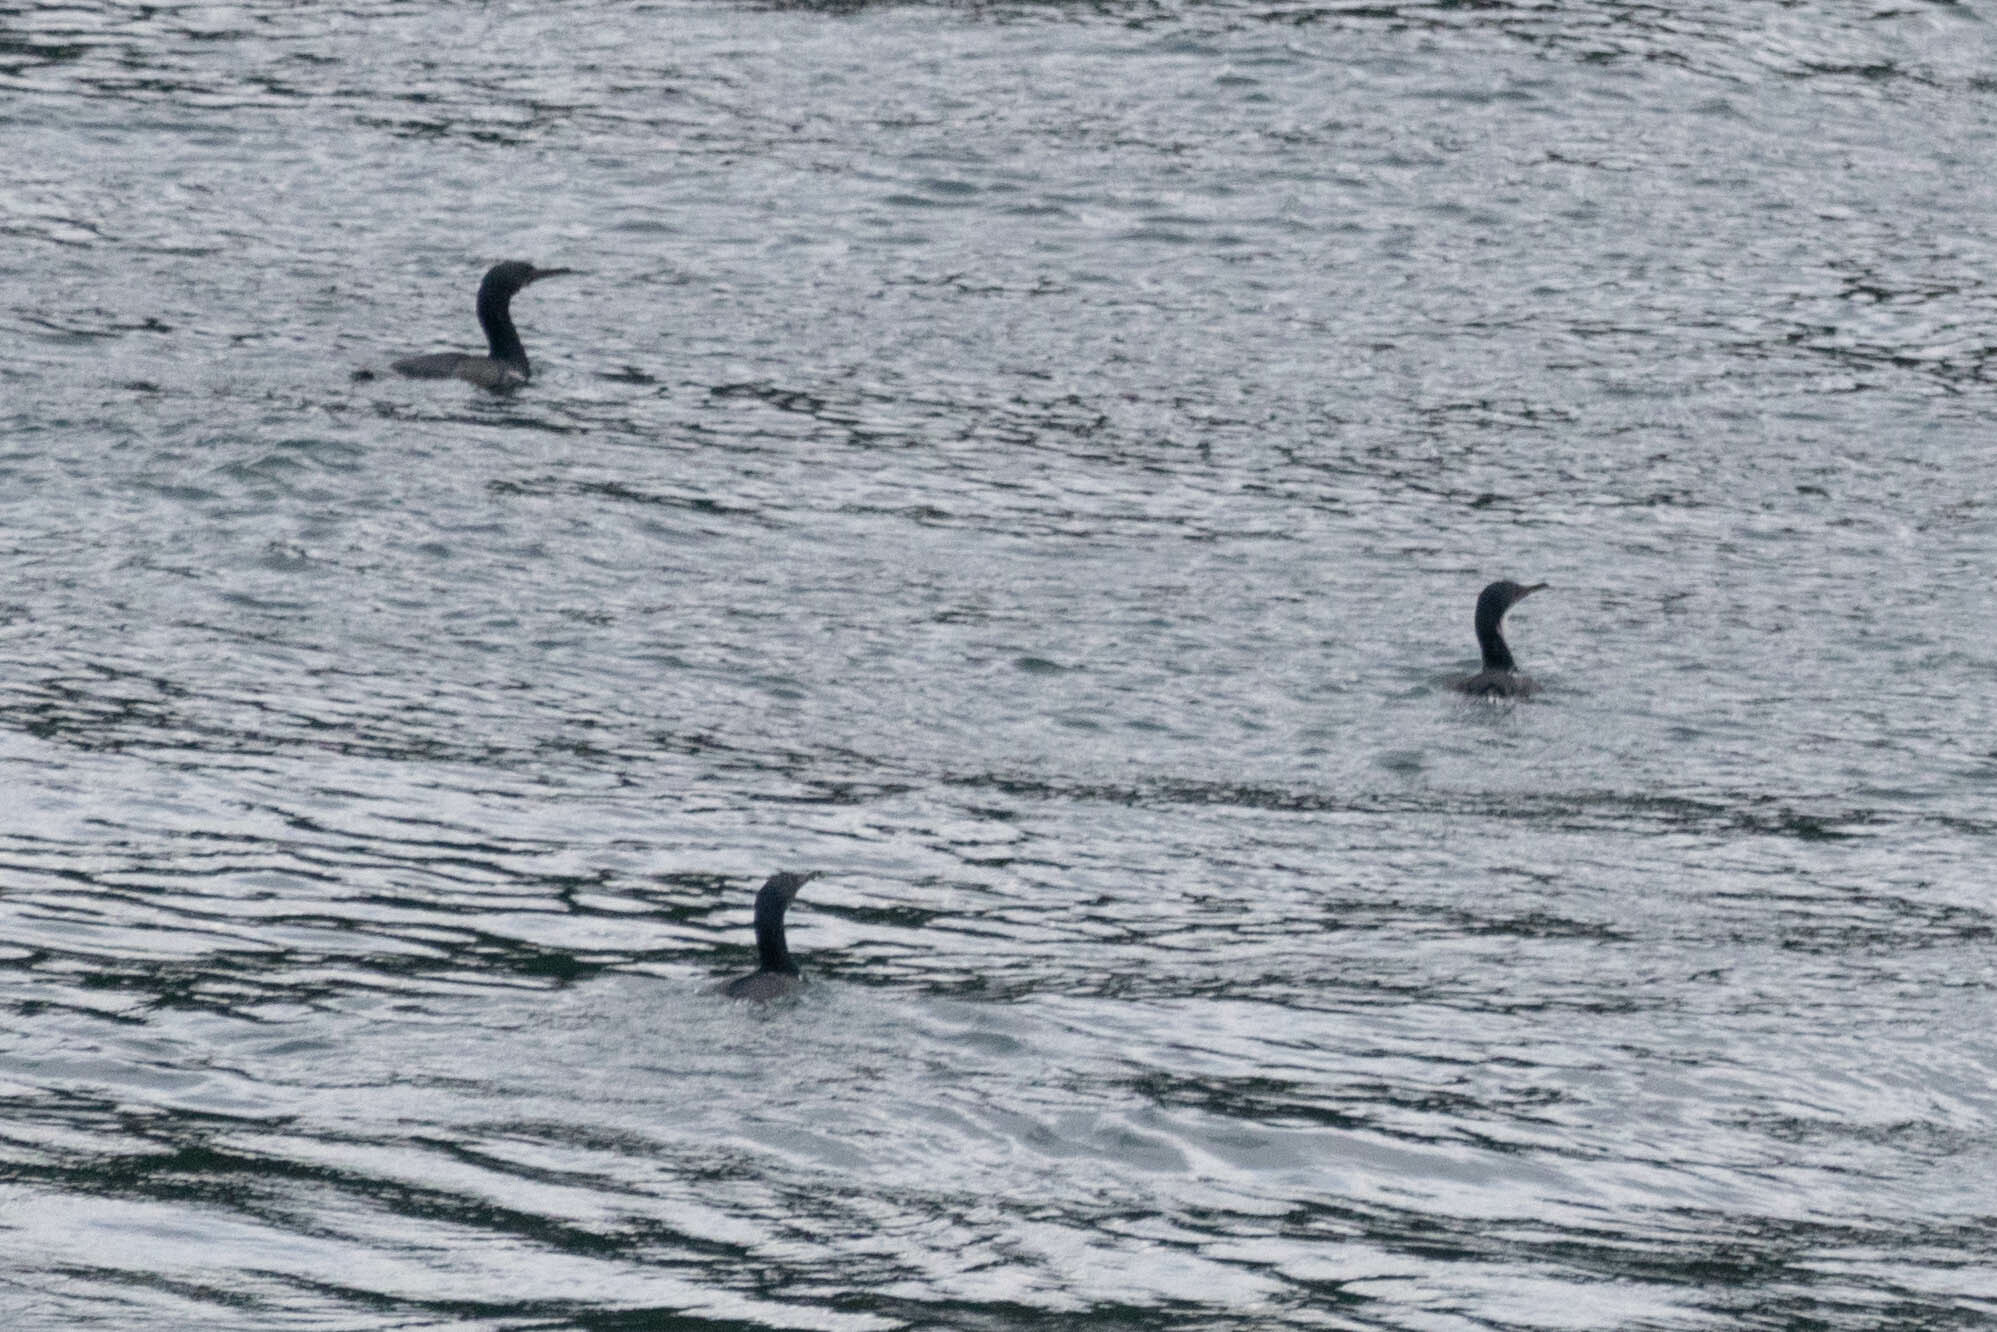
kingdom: Animalia
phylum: Chordata
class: Aves
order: Suliformes
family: Phalacrocoracidae
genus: Phalacrocorax
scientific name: Phalacrocorax pelagicus
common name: Pelagic cormorant
